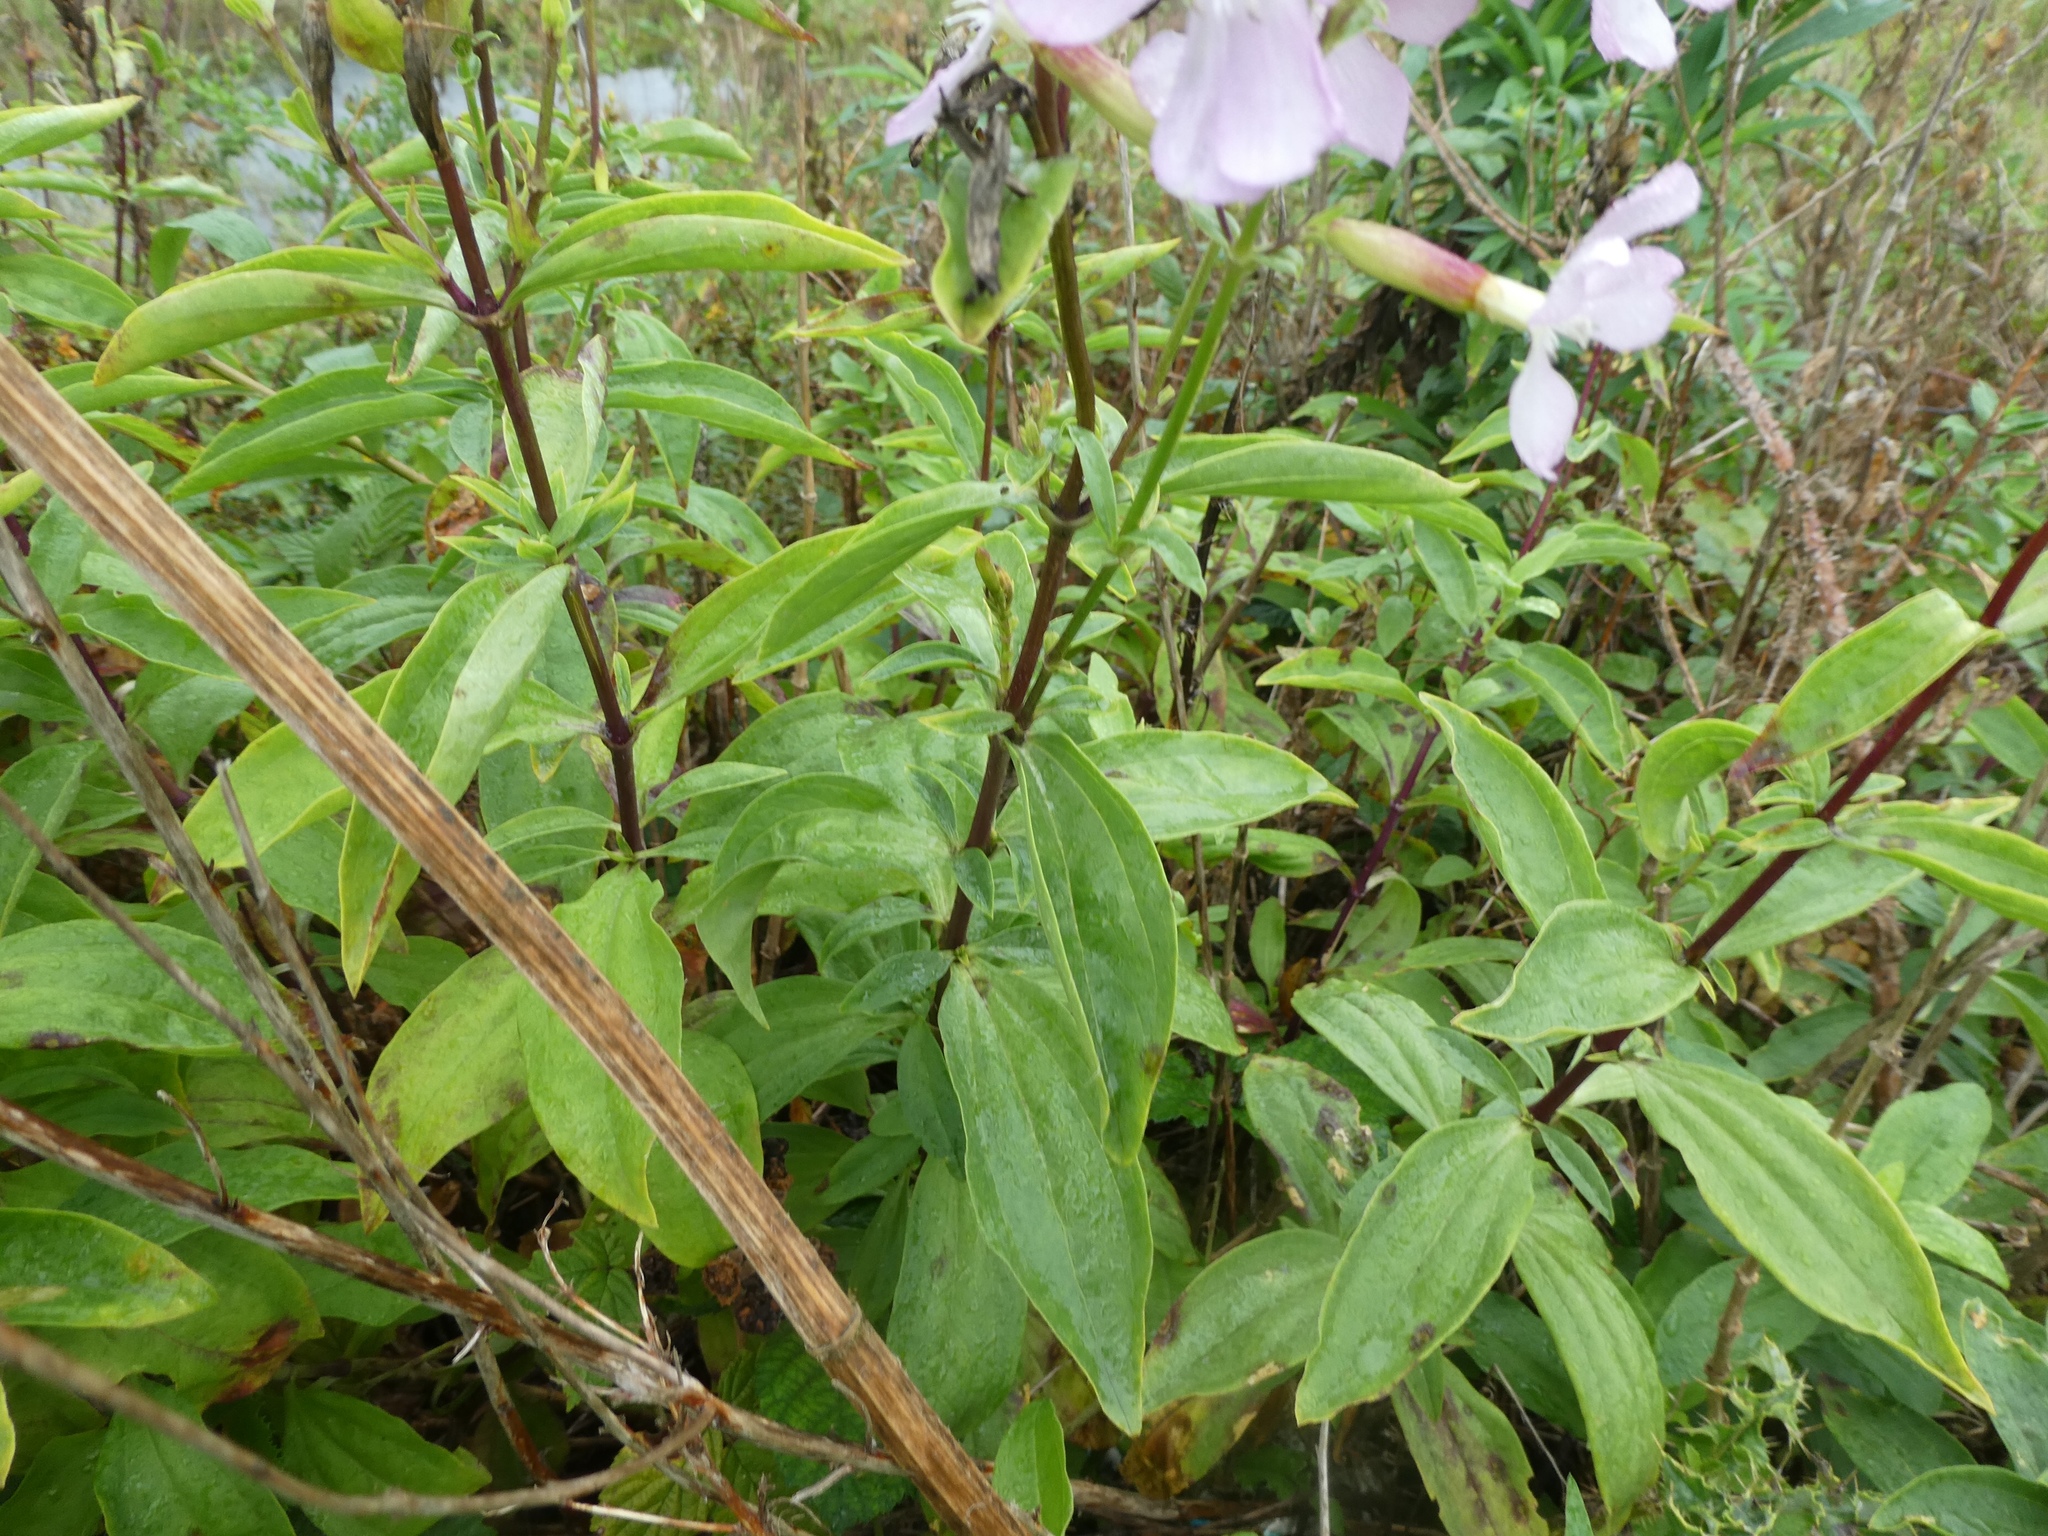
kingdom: Plantae
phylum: Tracheophyta
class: Magnoliopsida
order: Caryophyllales
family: Caryophyllaceae
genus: Saponaria
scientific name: Saponaria officinalis
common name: Soapwort
